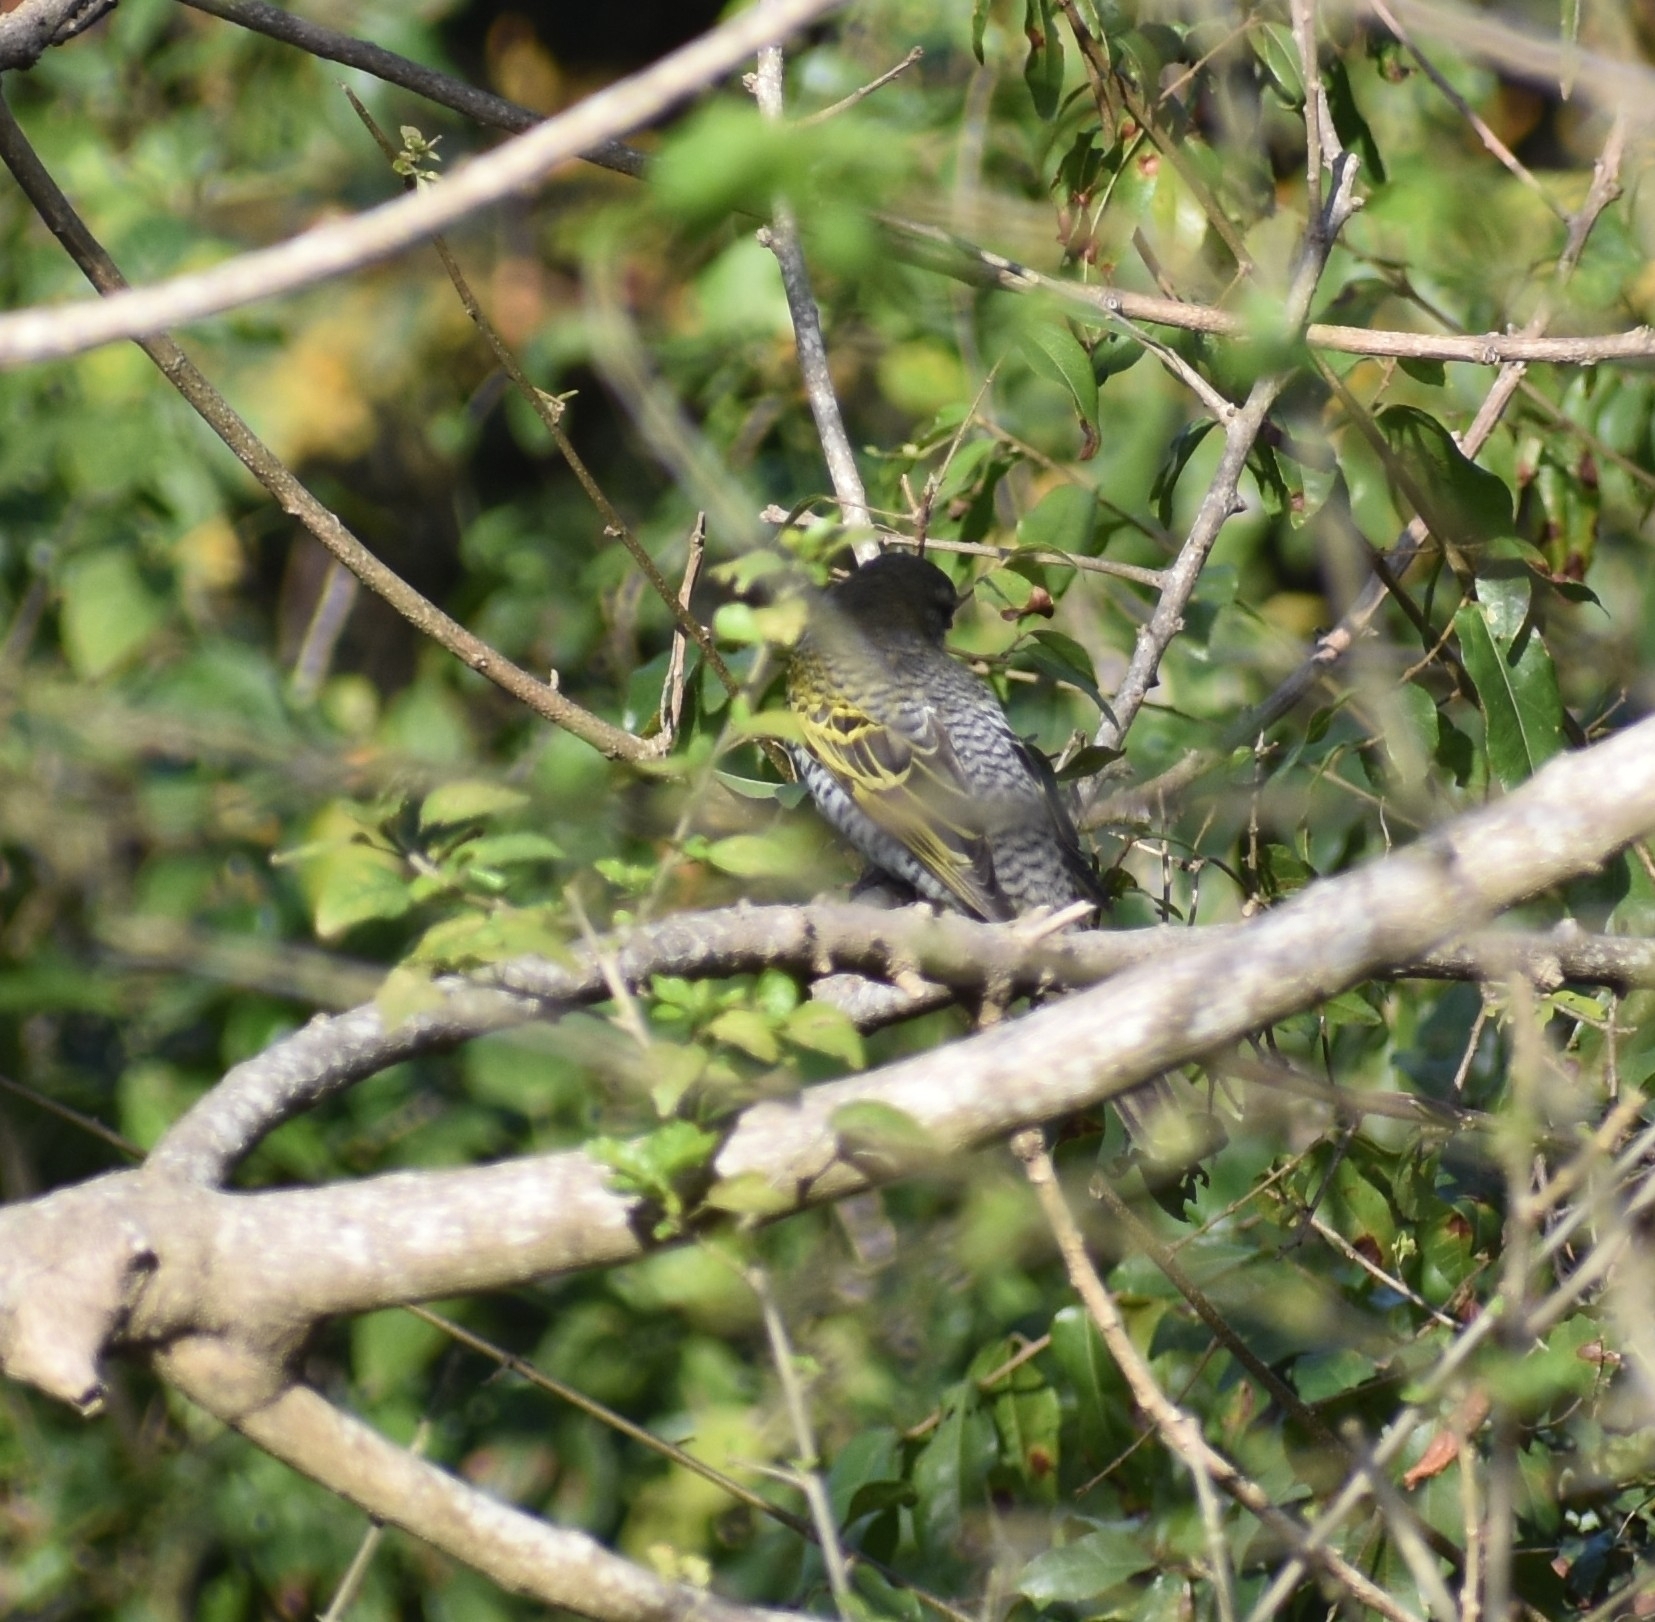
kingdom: Animalia
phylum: Chordata
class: Aves
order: Passeriformes
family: Campephagidae
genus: Campephaga
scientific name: Campephaga flava
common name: Black cuckooshrike
